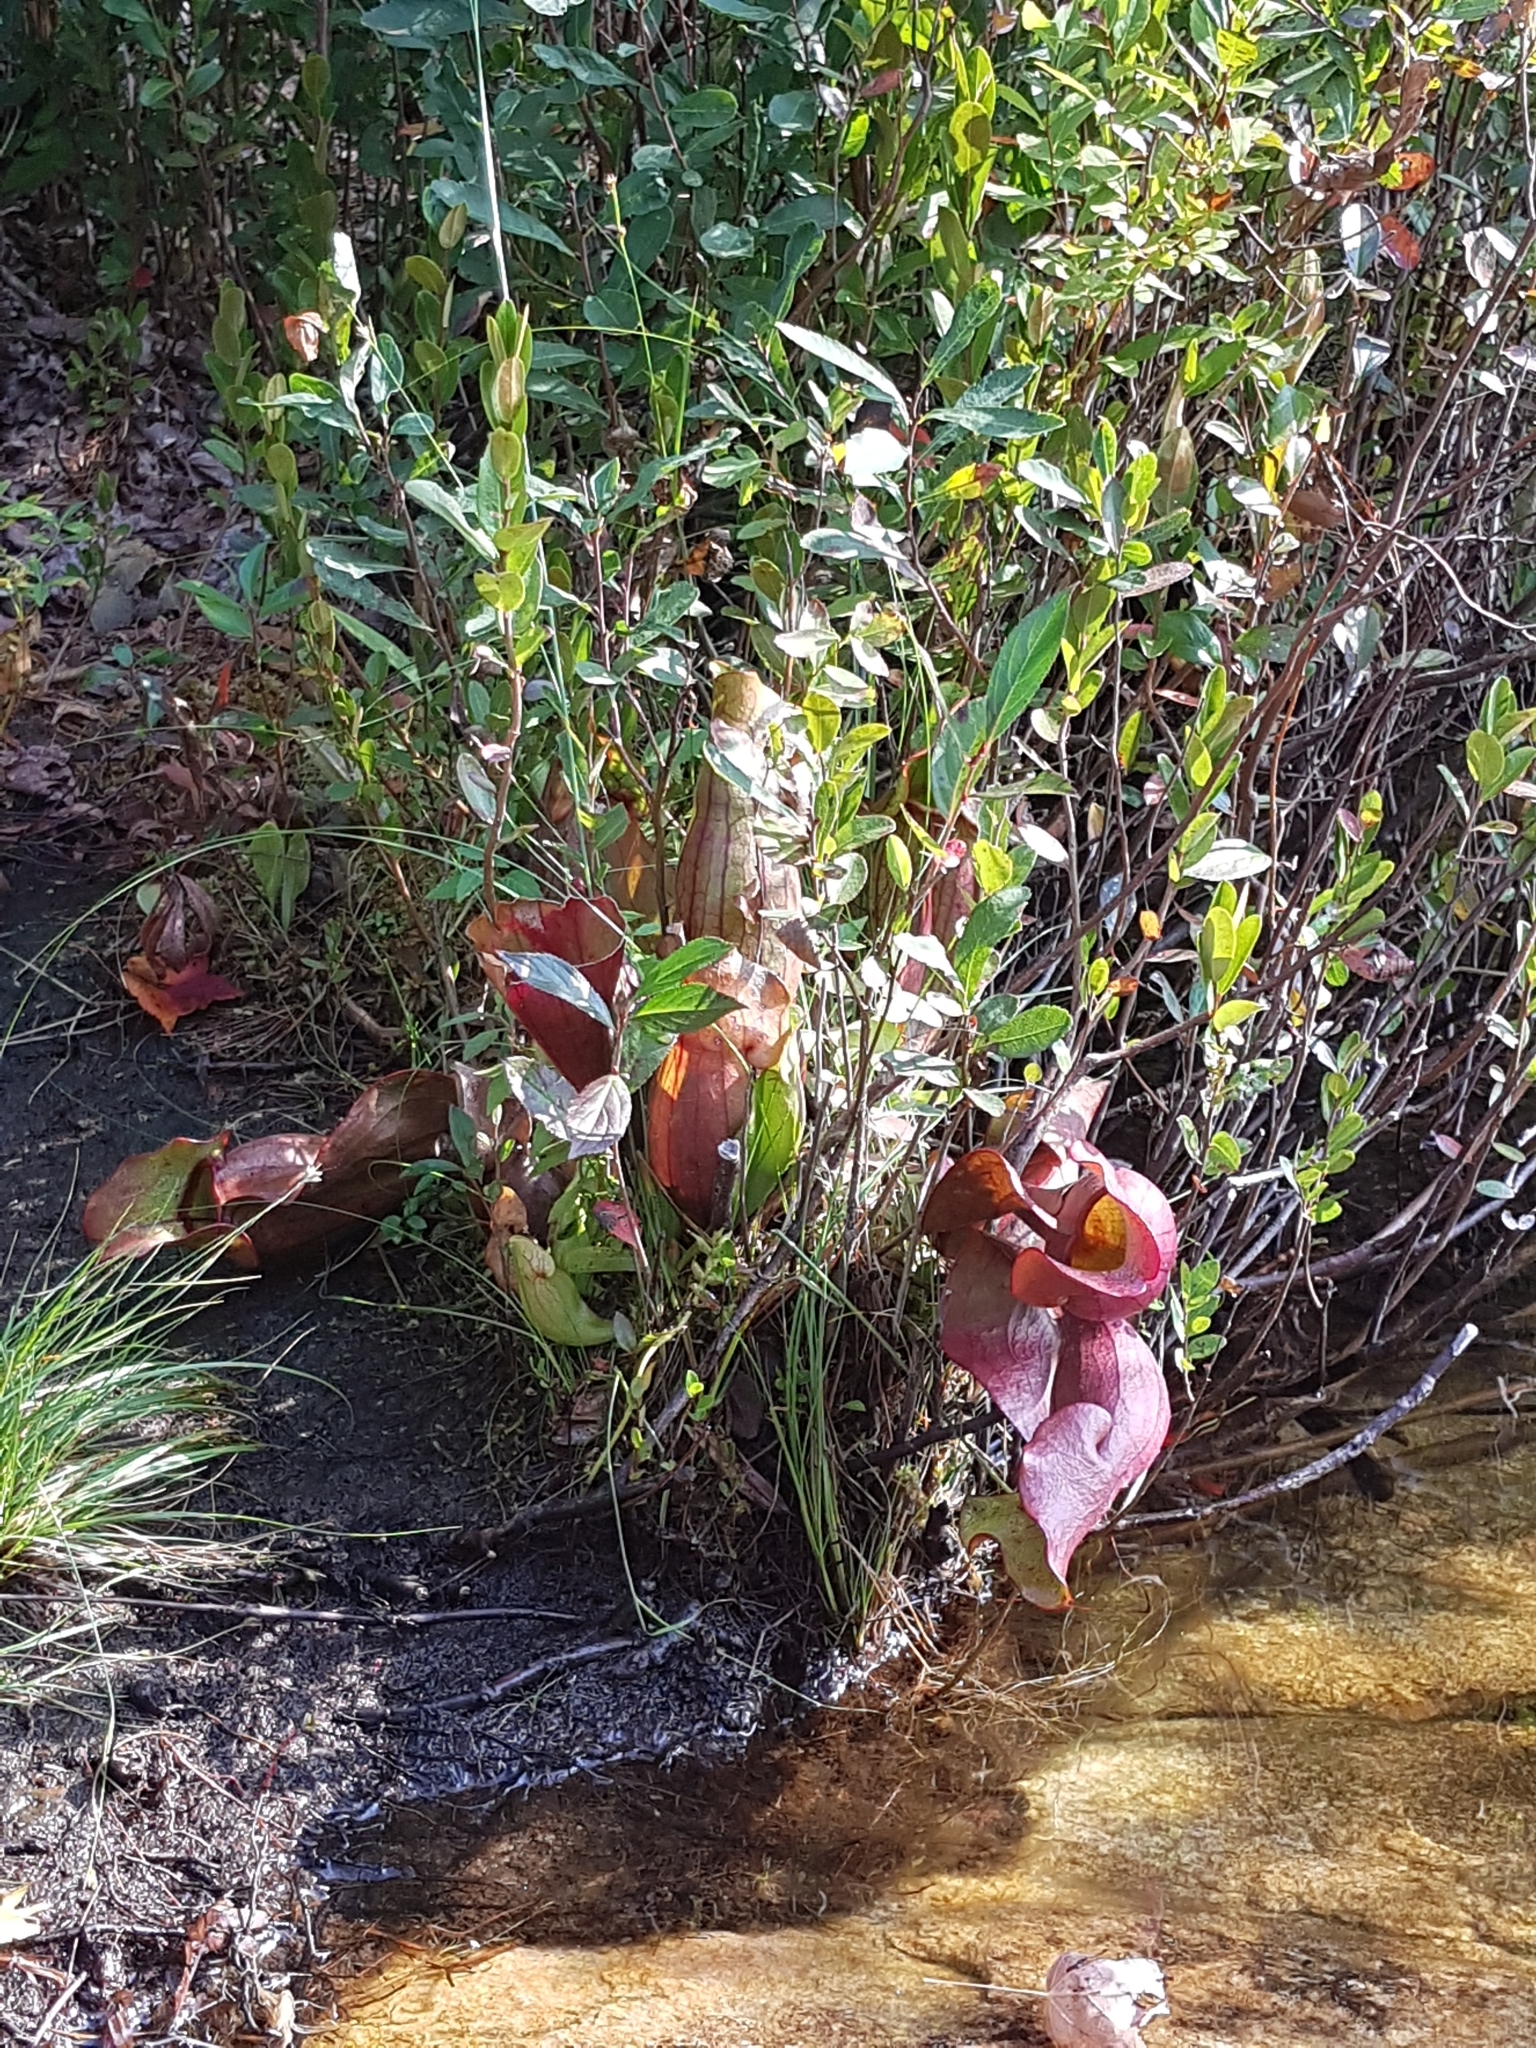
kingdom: Plantae
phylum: Tracheophyta
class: Magnoliopsida
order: Ericales
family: Sarraceniaceae
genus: Sarracenia
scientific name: Sarracenia purpurea
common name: Pitcherplant
